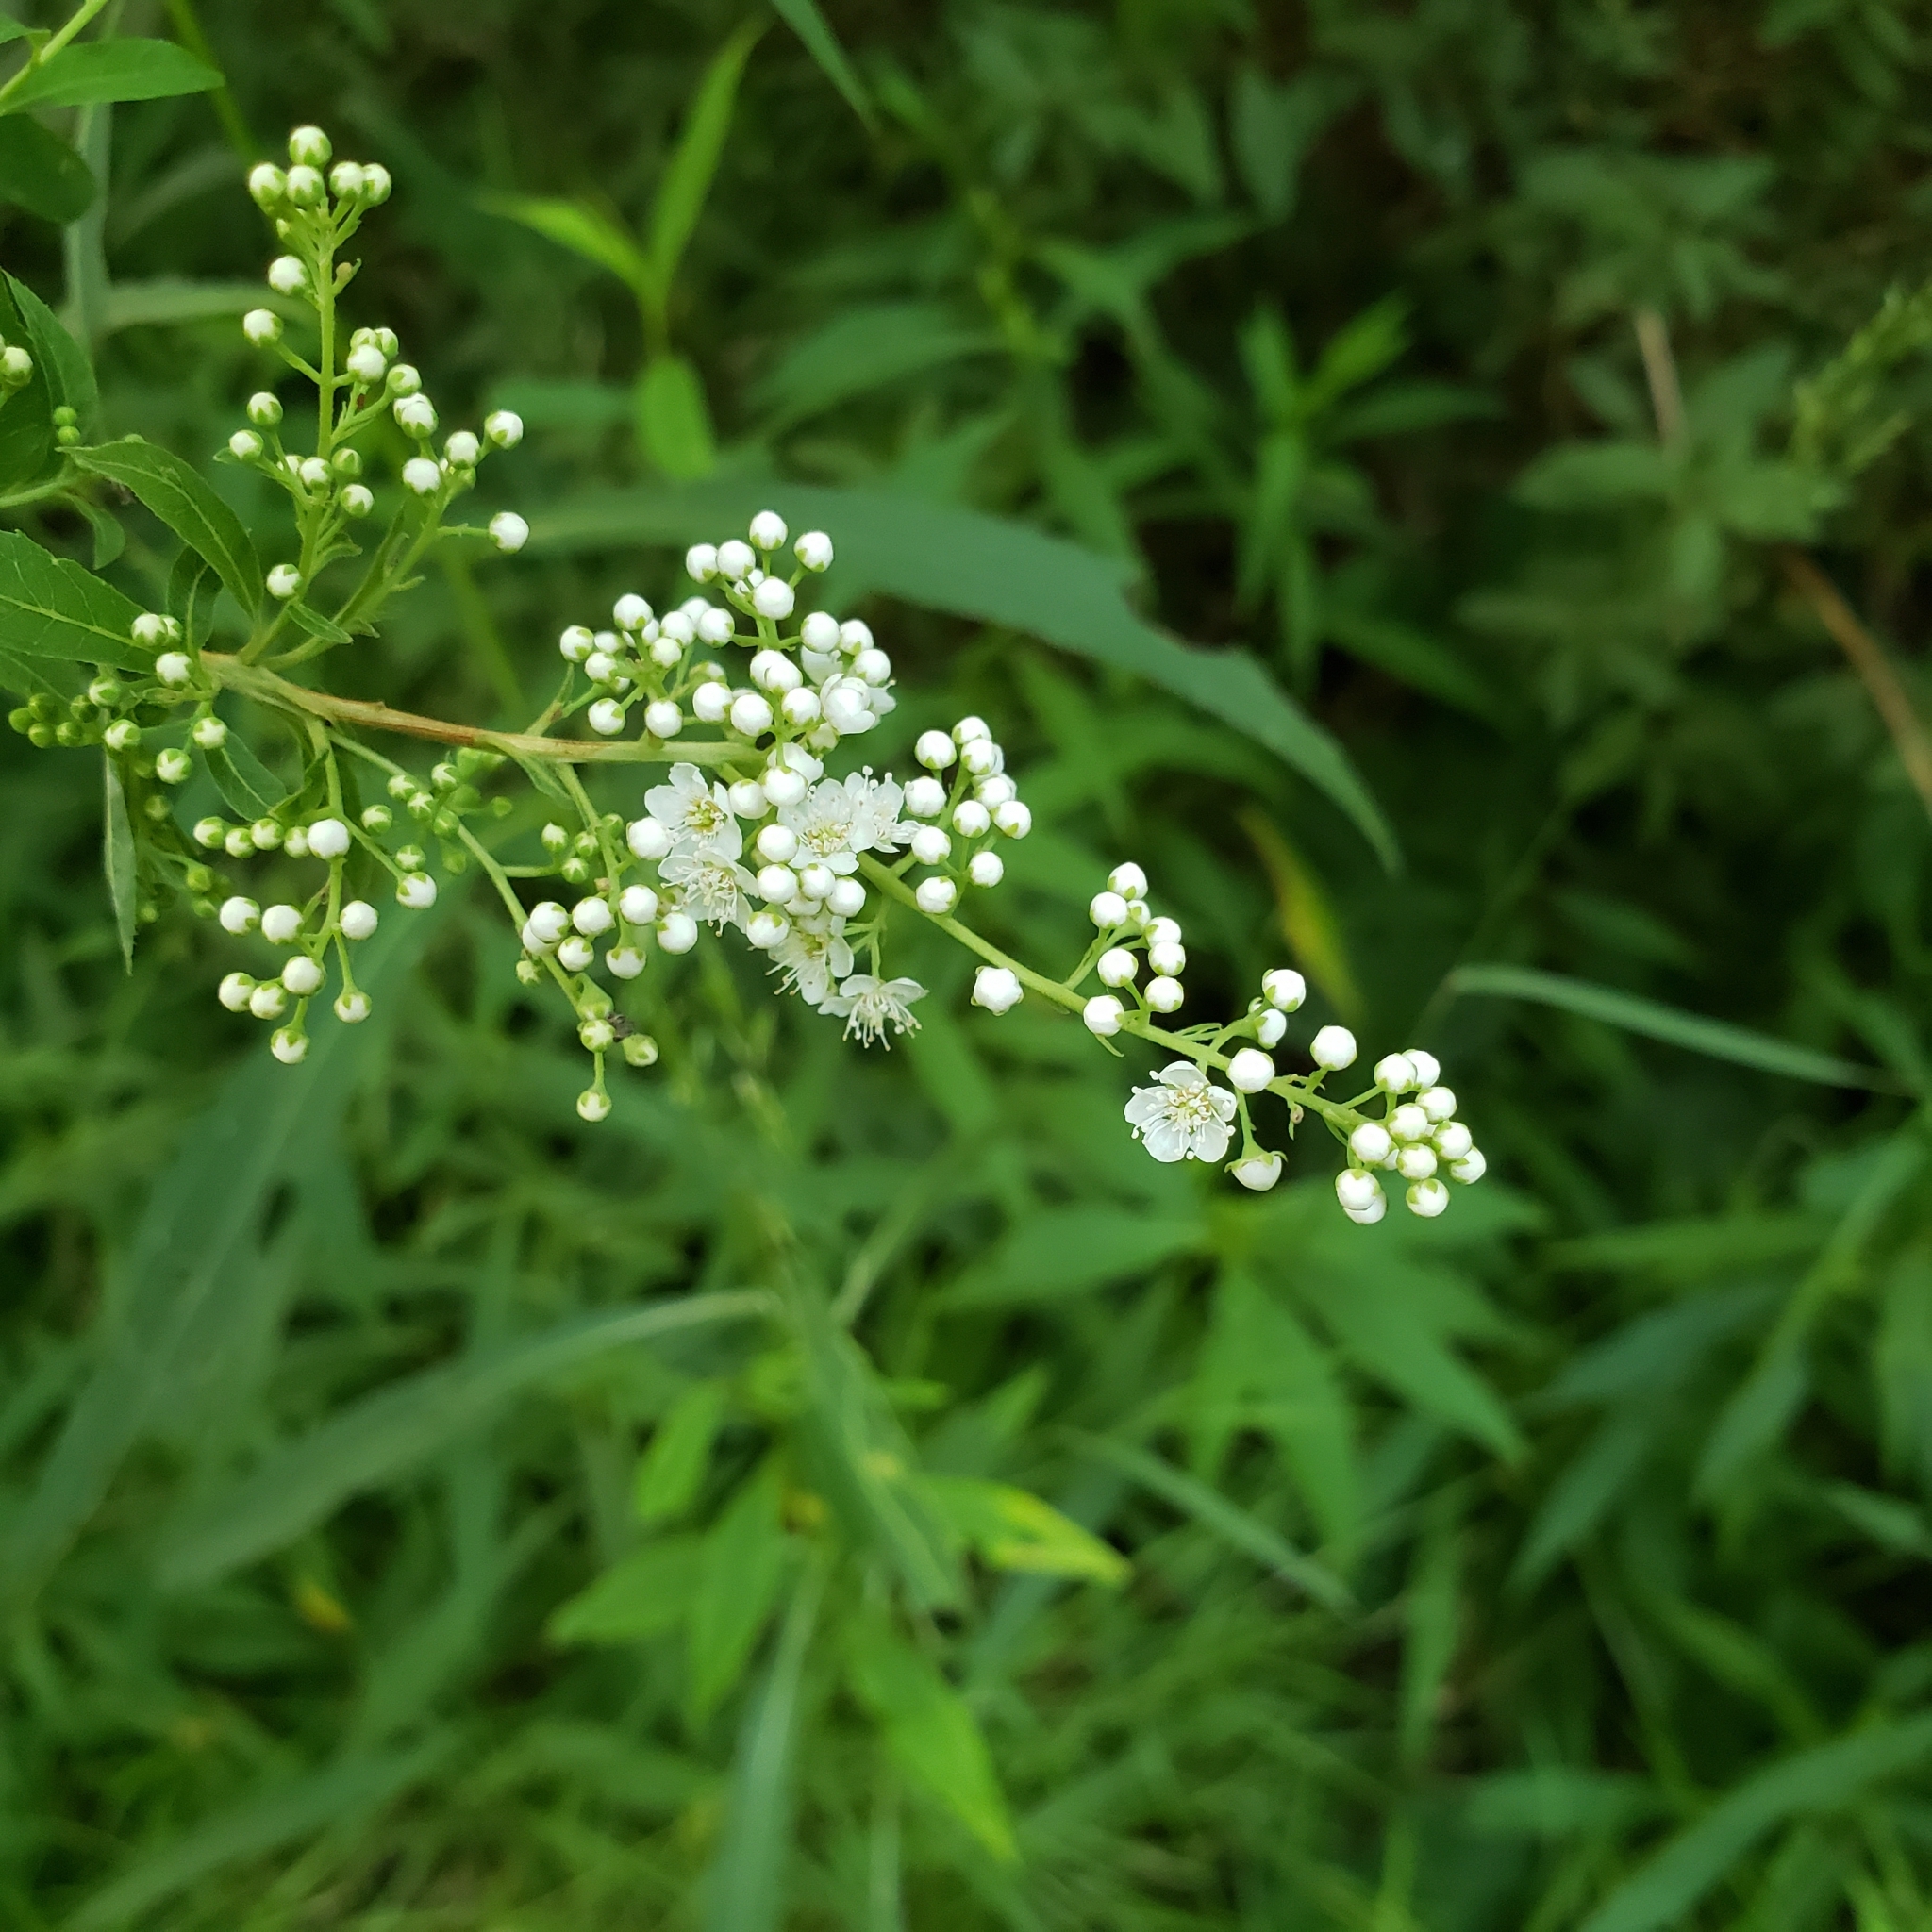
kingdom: Plantae
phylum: Tracheophyta
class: Magnoliopsida
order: Rosales
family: Rosaceae
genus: Spiraea
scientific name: Spiraea alba
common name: Pale bridewort
